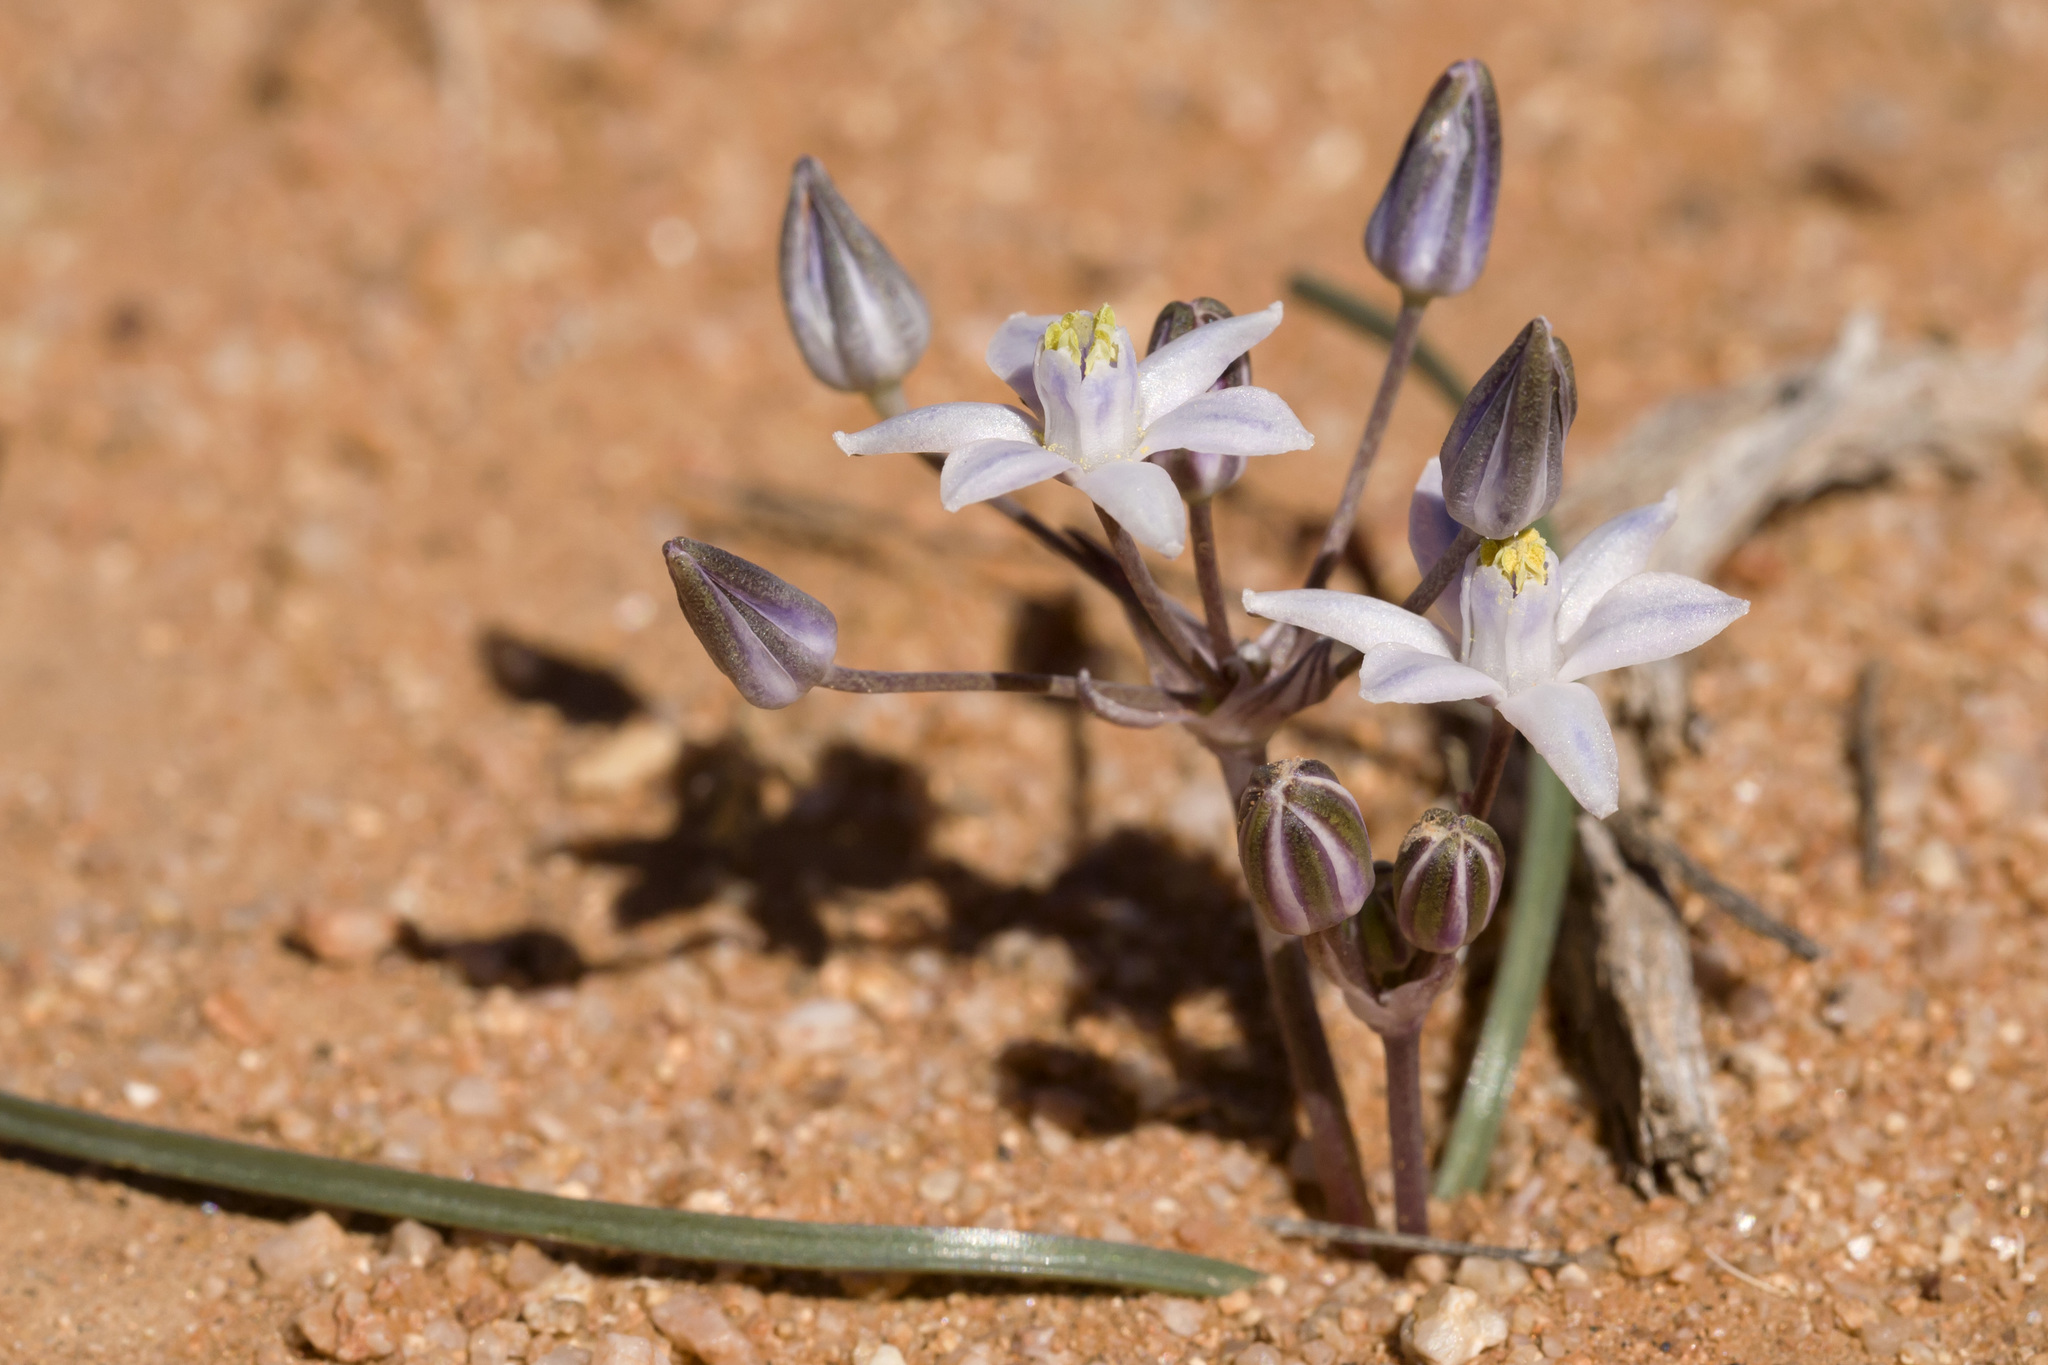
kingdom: Plantae
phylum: Tracheophyta
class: Liliopsida
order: Asparagales
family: Asparagaceae
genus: Muilla
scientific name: Muilla lordsburgana
